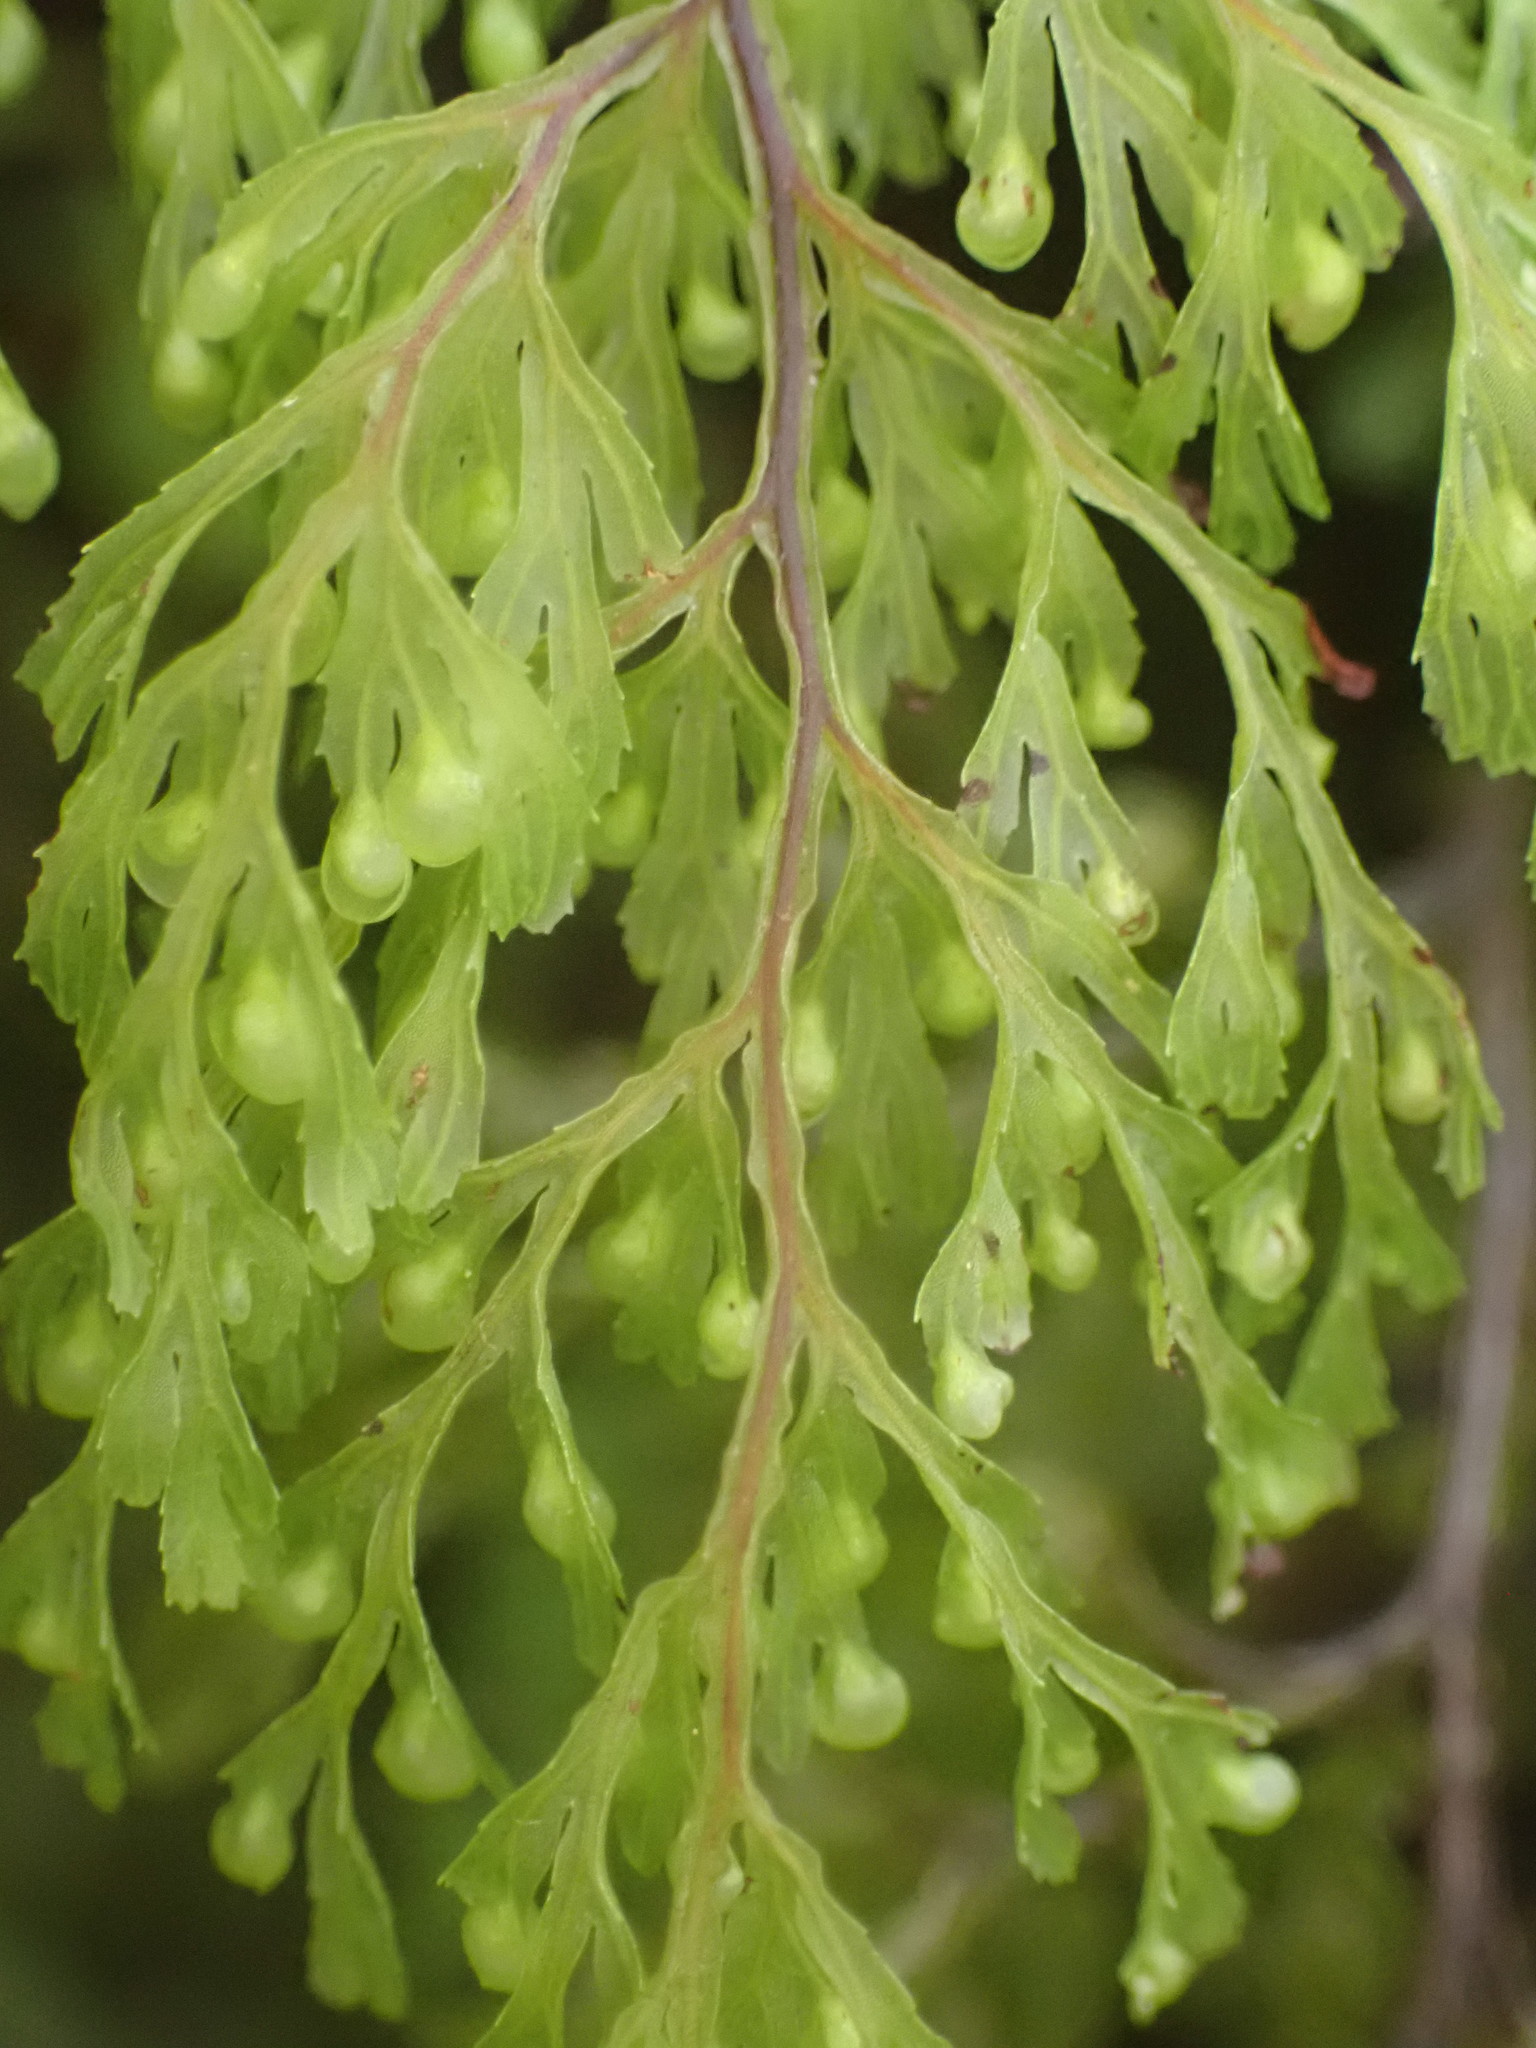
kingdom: Plantae
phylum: Tracheophyta
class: Polypodiopsida
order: Hymenophyllales
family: Hymenophyllaceae
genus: Hymenophyllum
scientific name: Hymenophyllum bivalve
